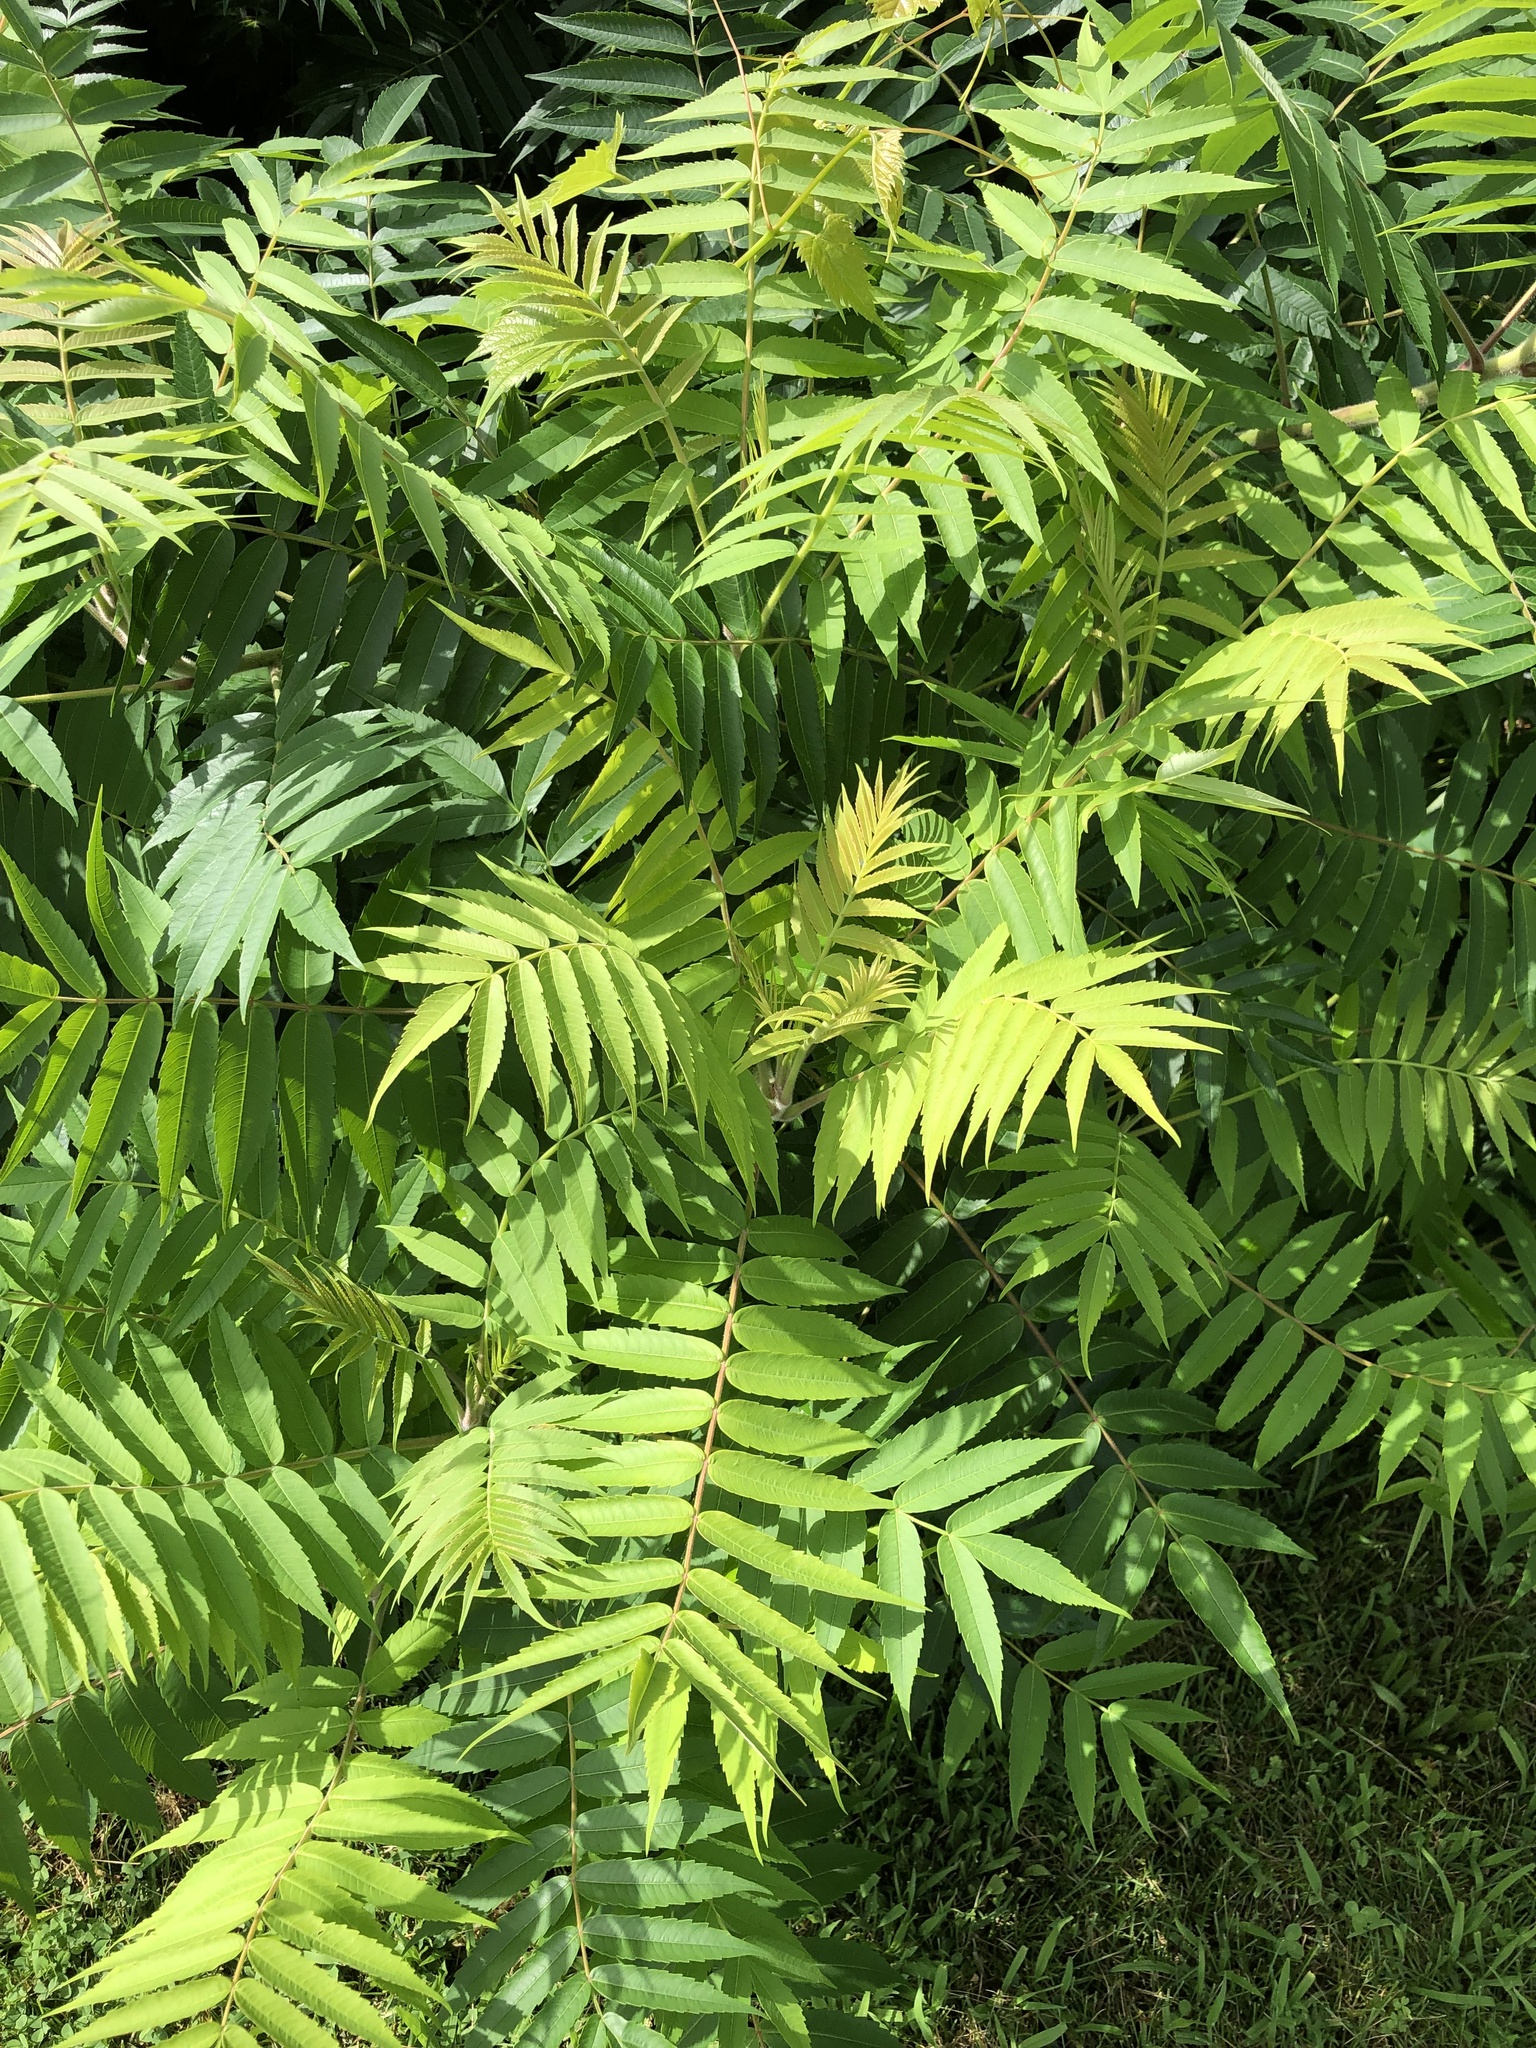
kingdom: Plantae
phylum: Tracheophyta
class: Magnoliopsida
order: Sapindales
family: Anacardiaceae
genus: Rhus
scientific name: Rhus typhina
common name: Staghorn sumac
